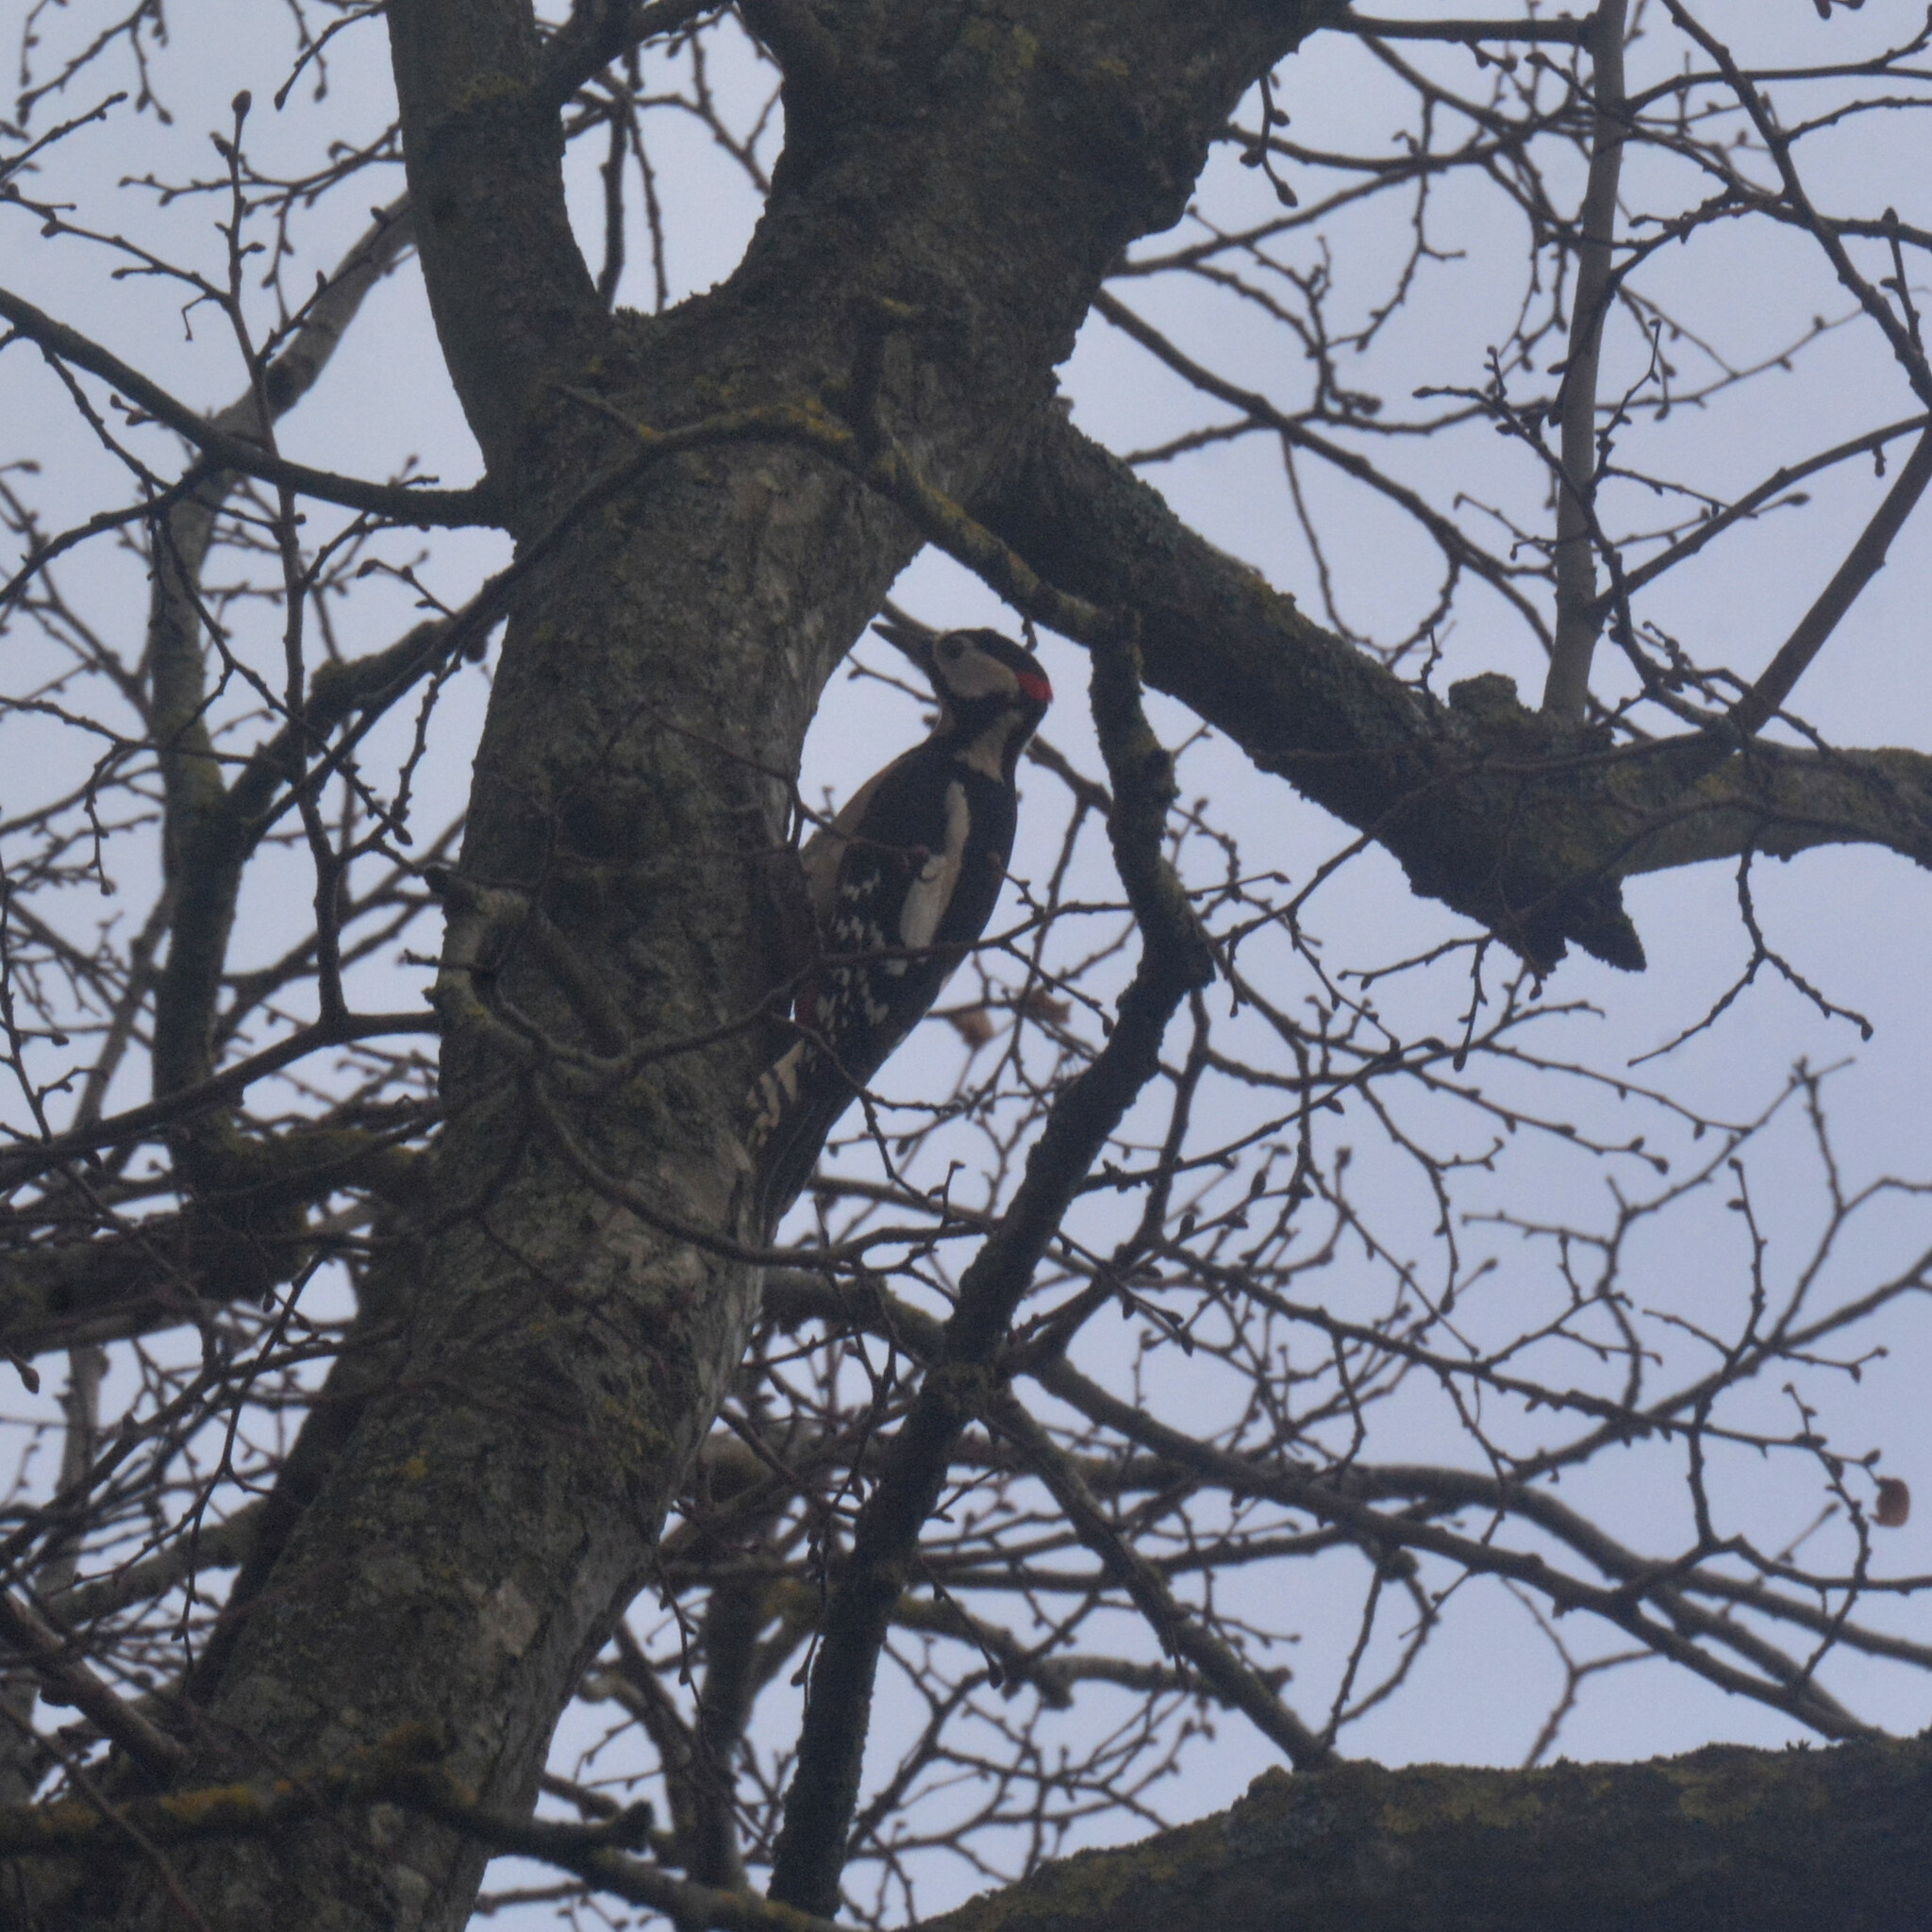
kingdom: Animalia
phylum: Chordata
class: Aves
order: Piciformes
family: Picidae
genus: Dendrocopos
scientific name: Dendrocopos major
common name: Great spotted woodpecker
